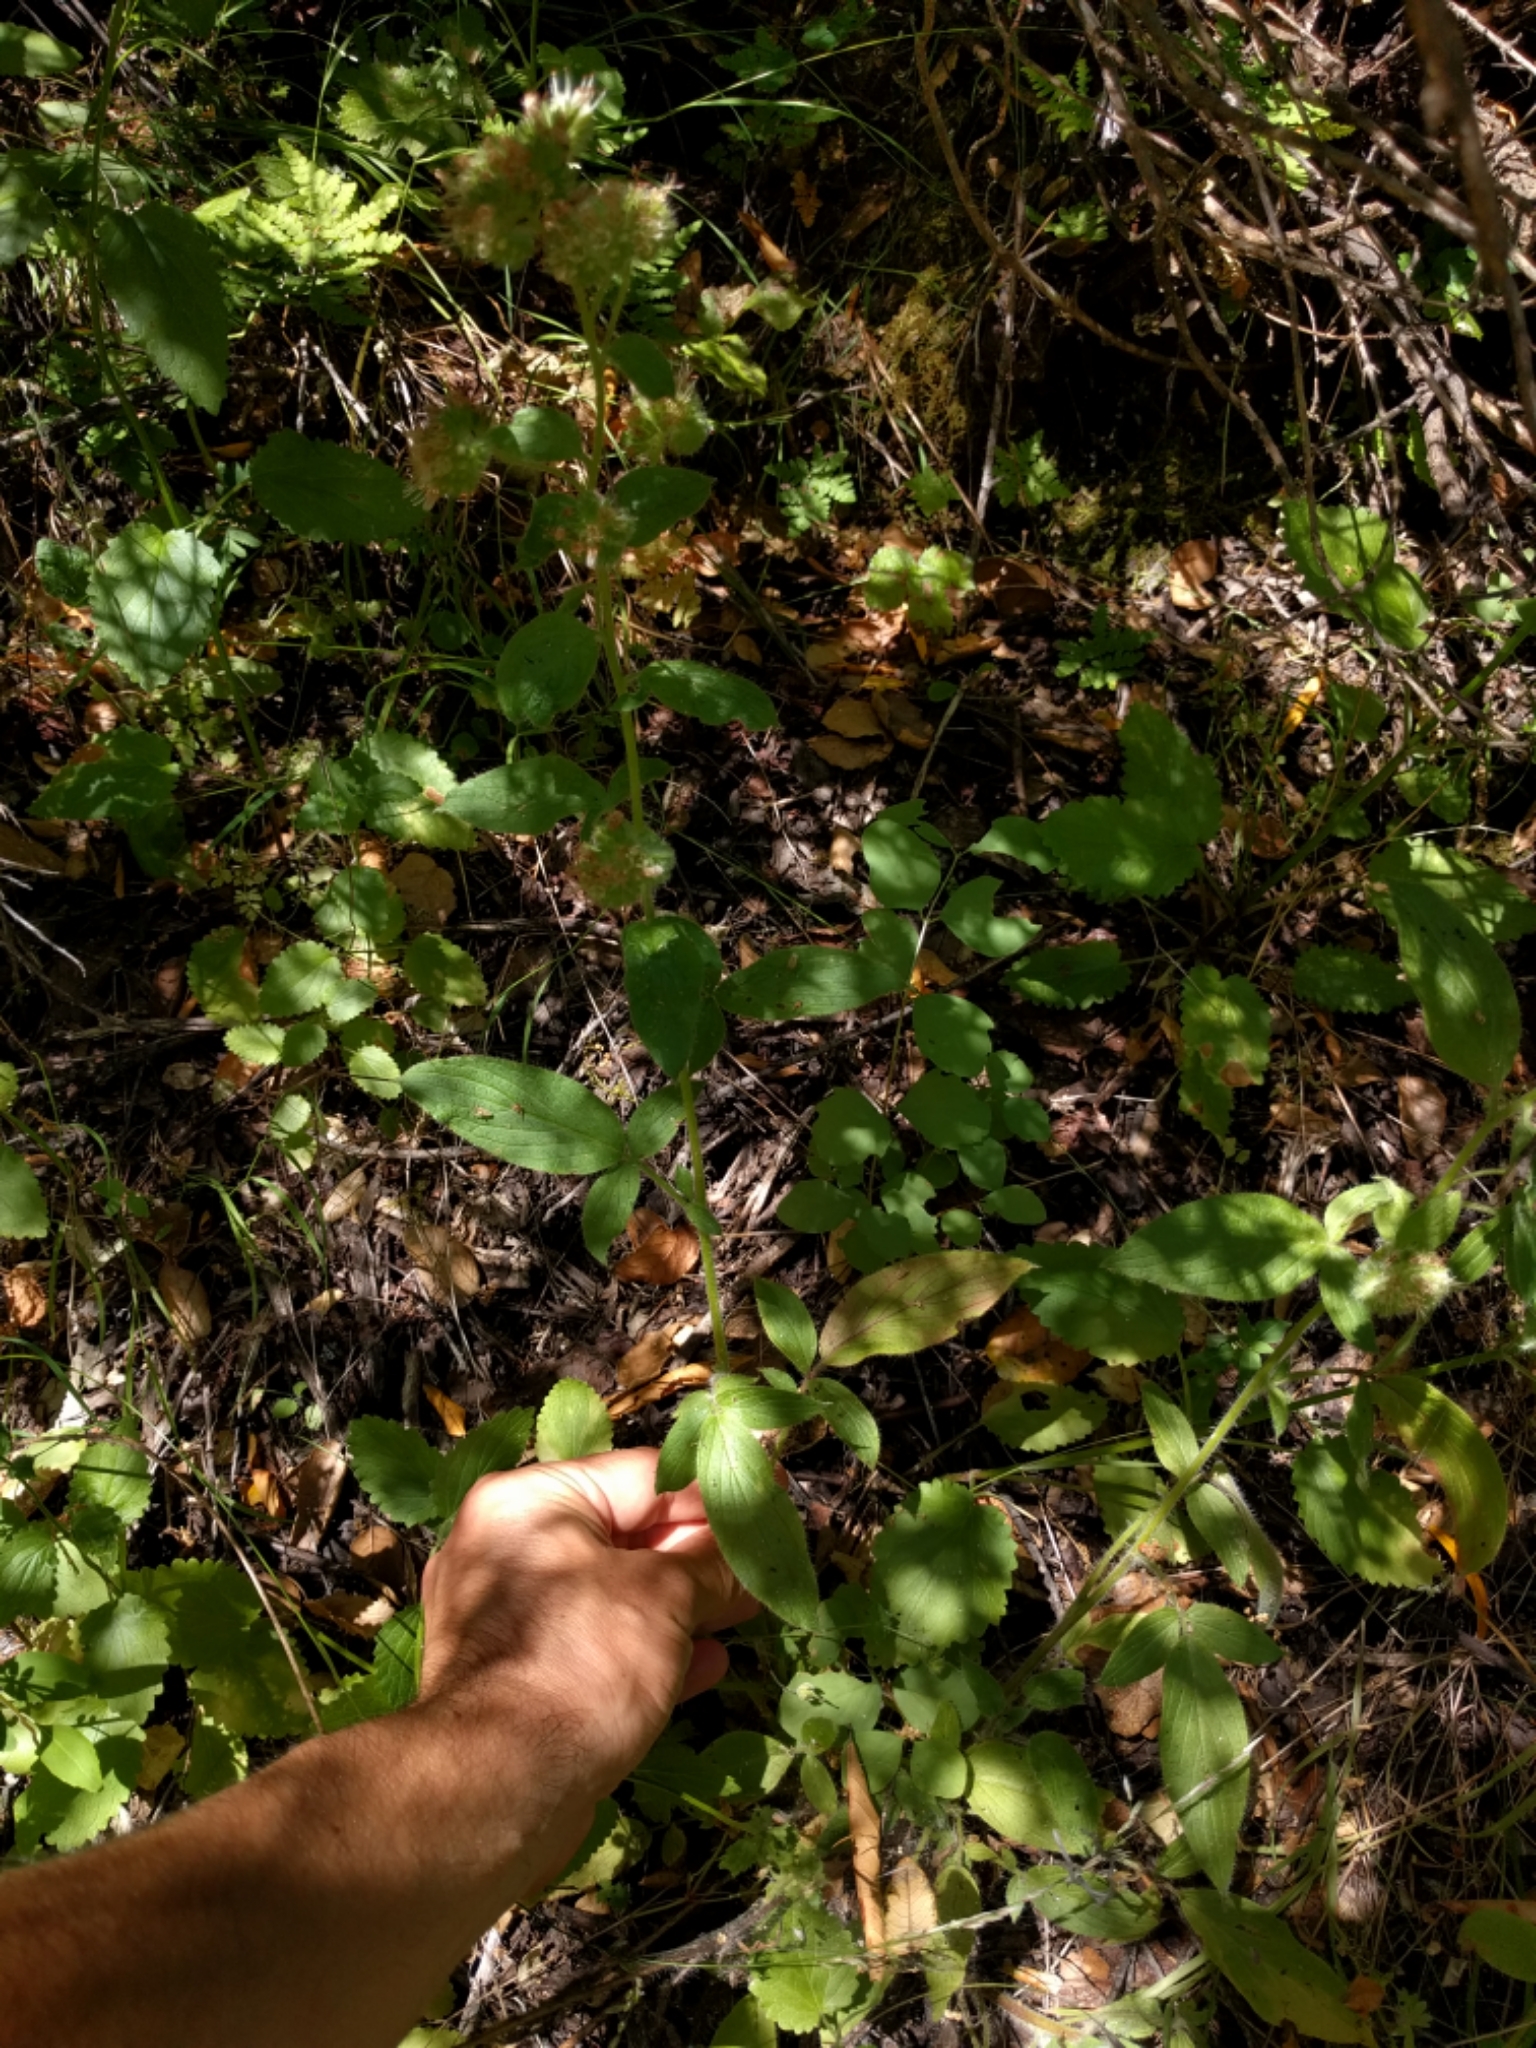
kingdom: Plantae
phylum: Tracheophyta
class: Magnoliopsida
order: Boraginales
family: Hydrophyllaceae
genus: Phacelia
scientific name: Phacelia nemoralis
